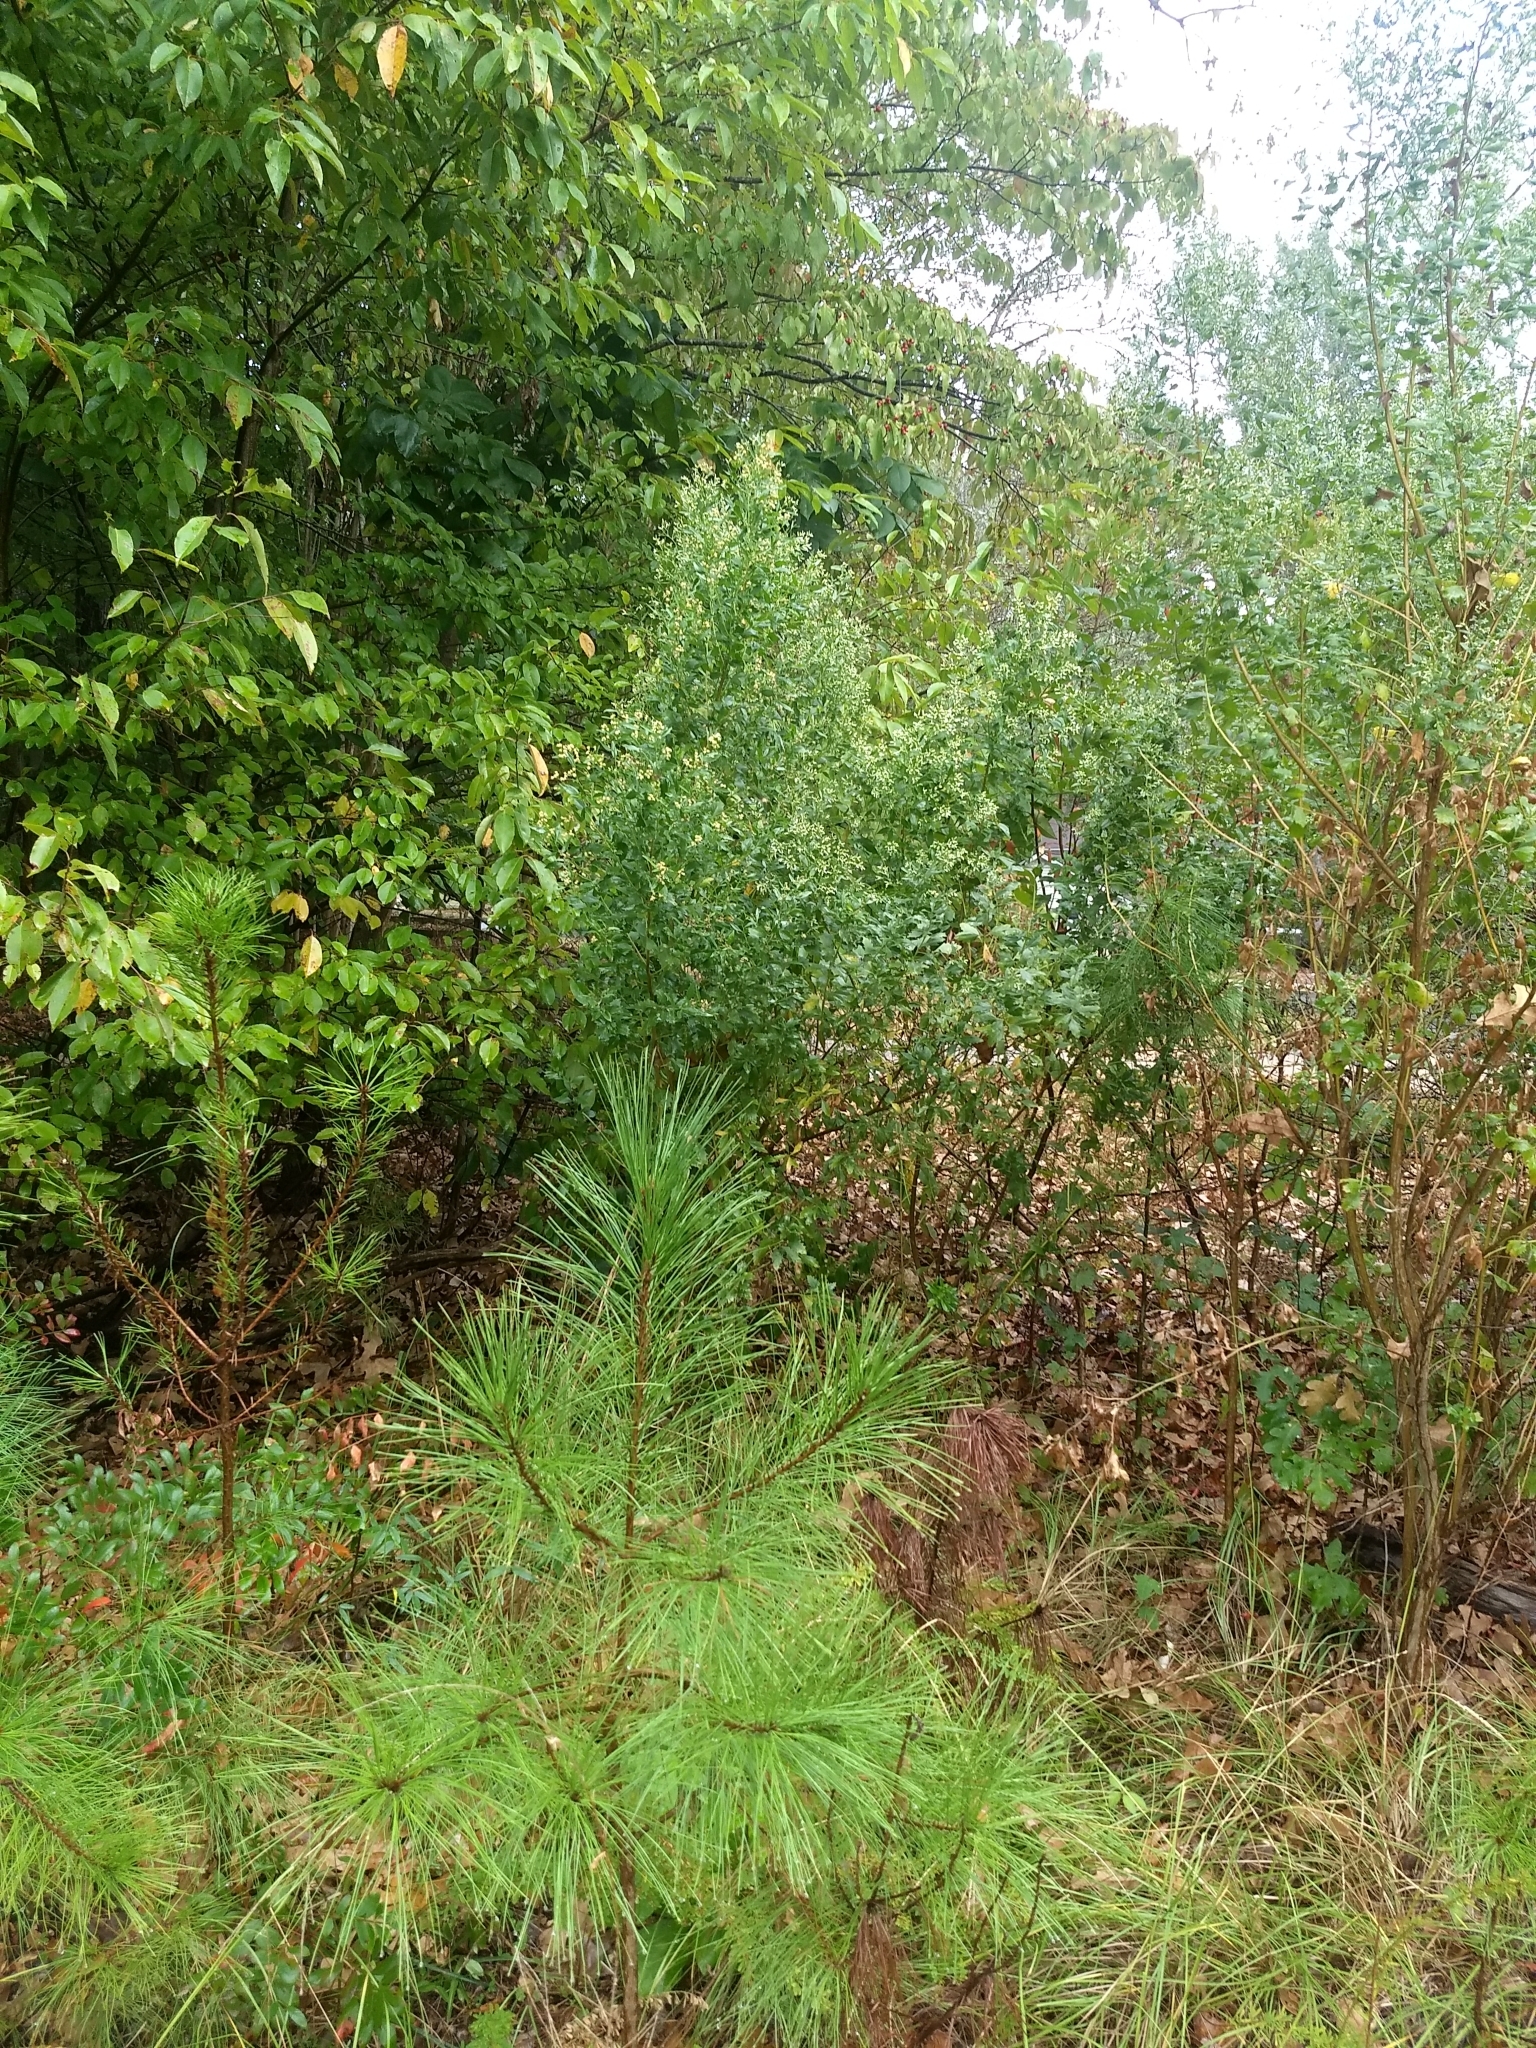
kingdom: Plantae
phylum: Tracheophyta
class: Magnoliopsida
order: Asterales
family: Asteraceae
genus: Baccharis
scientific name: Baccharis halimifolia
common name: Eastern baccharis
